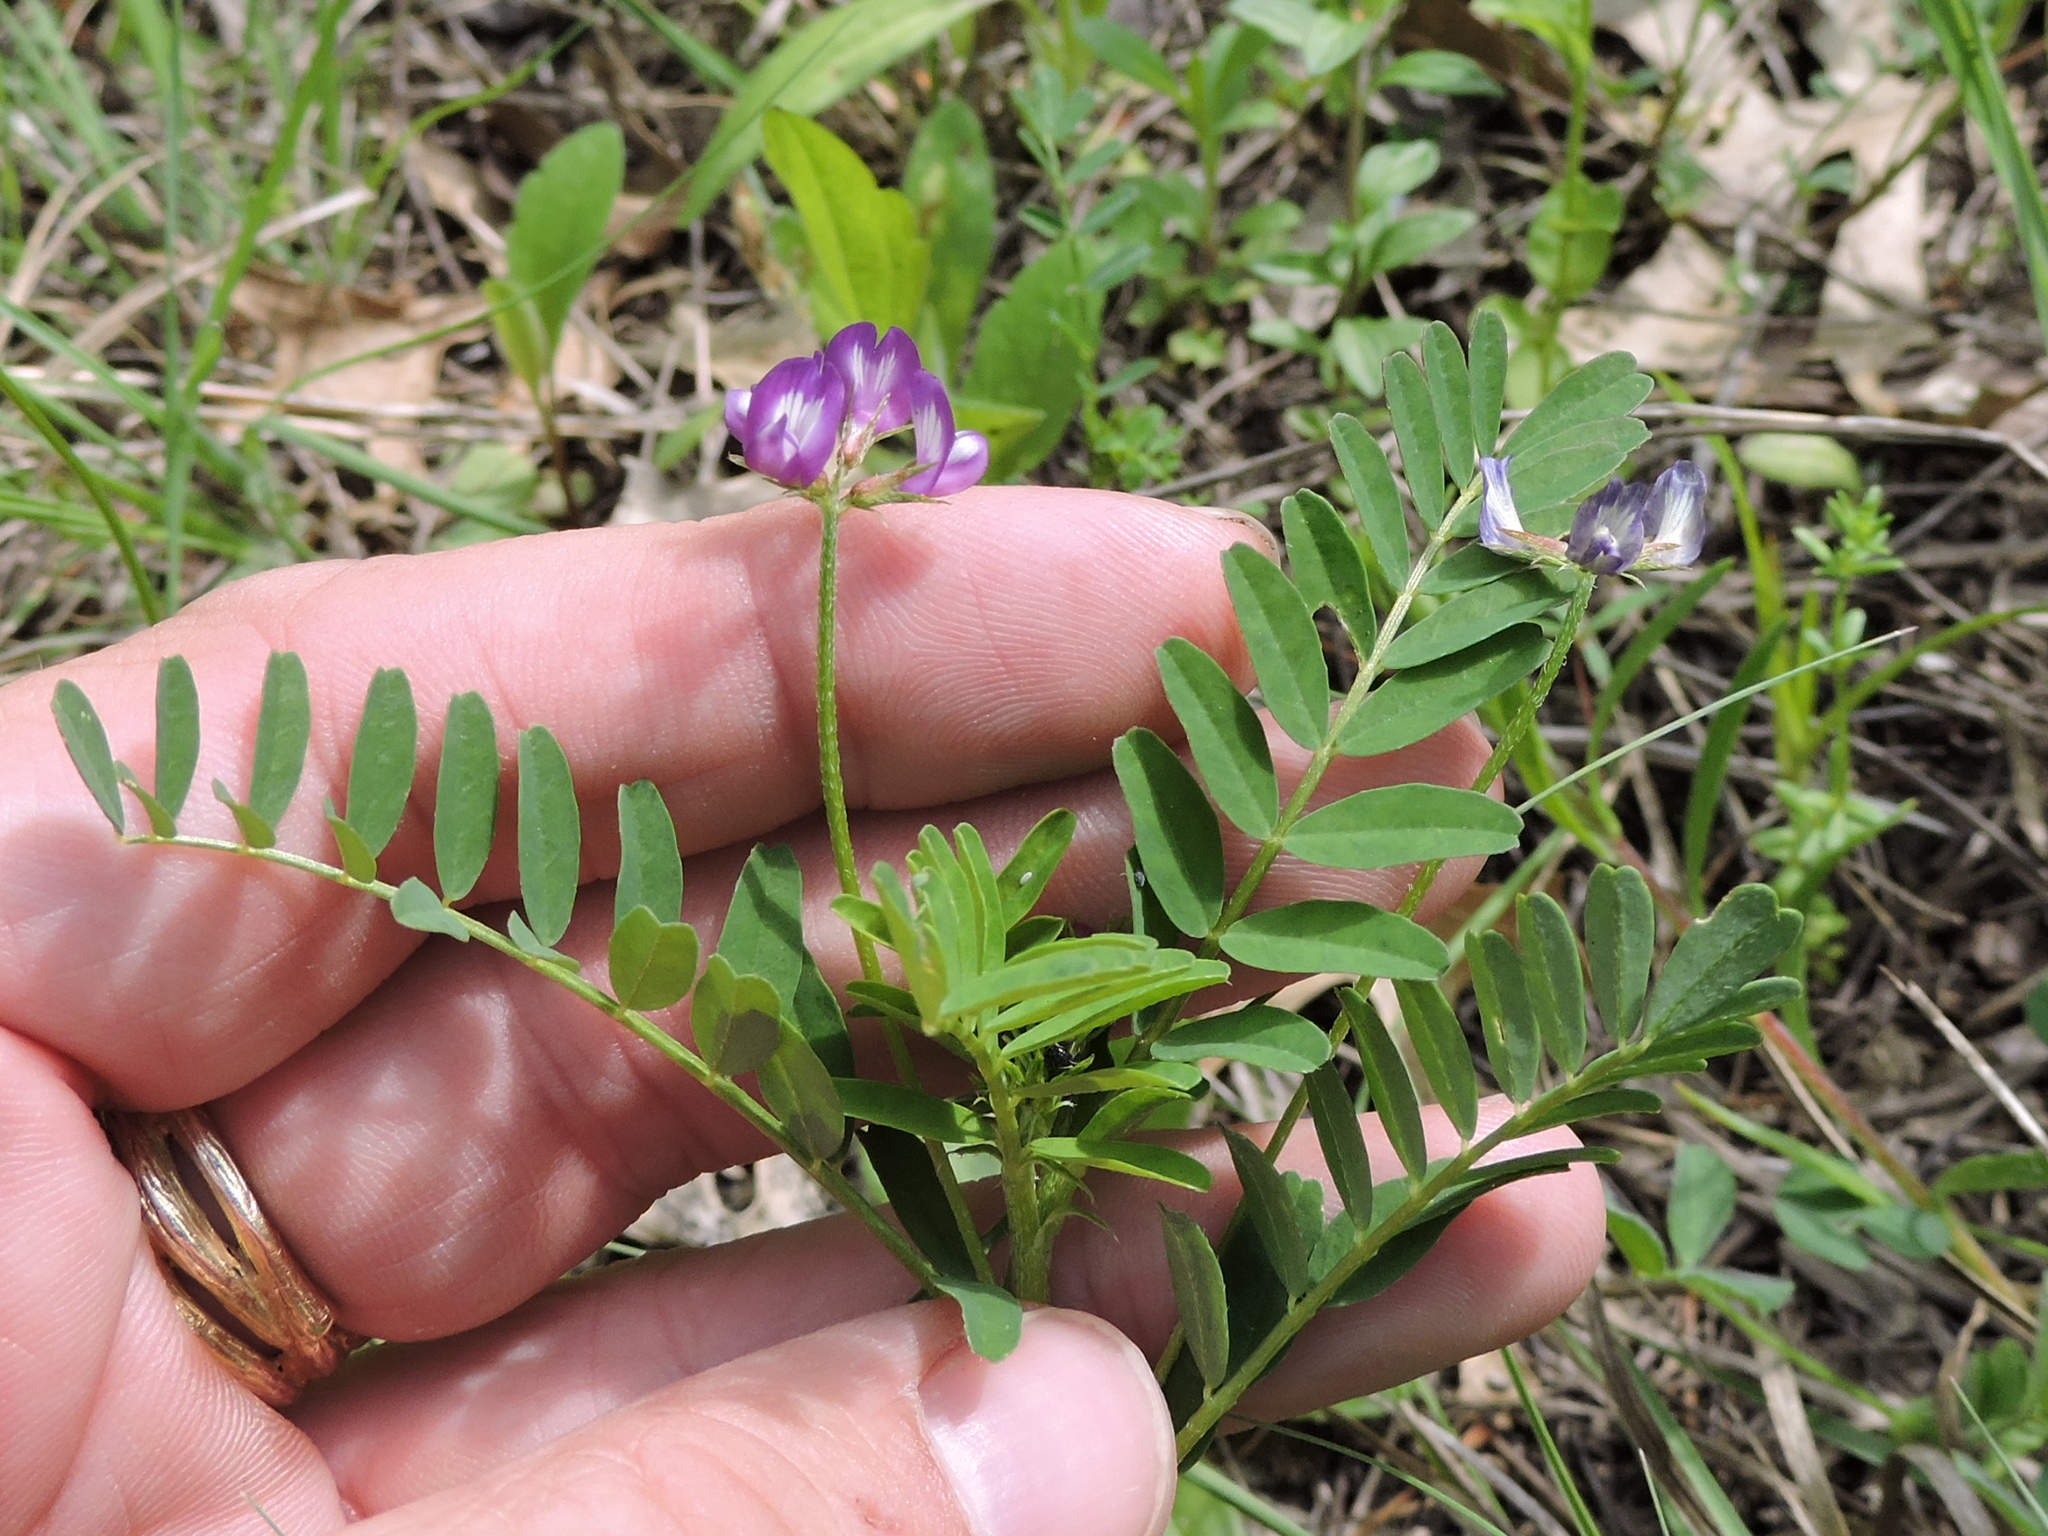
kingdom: Plantae
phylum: Tracheophyta
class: Magnoliopsida
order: Fabales
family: Fabaceae
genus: Astragalus
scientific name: Astragalus nuttallianus
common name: Smallflowered milkvetch
